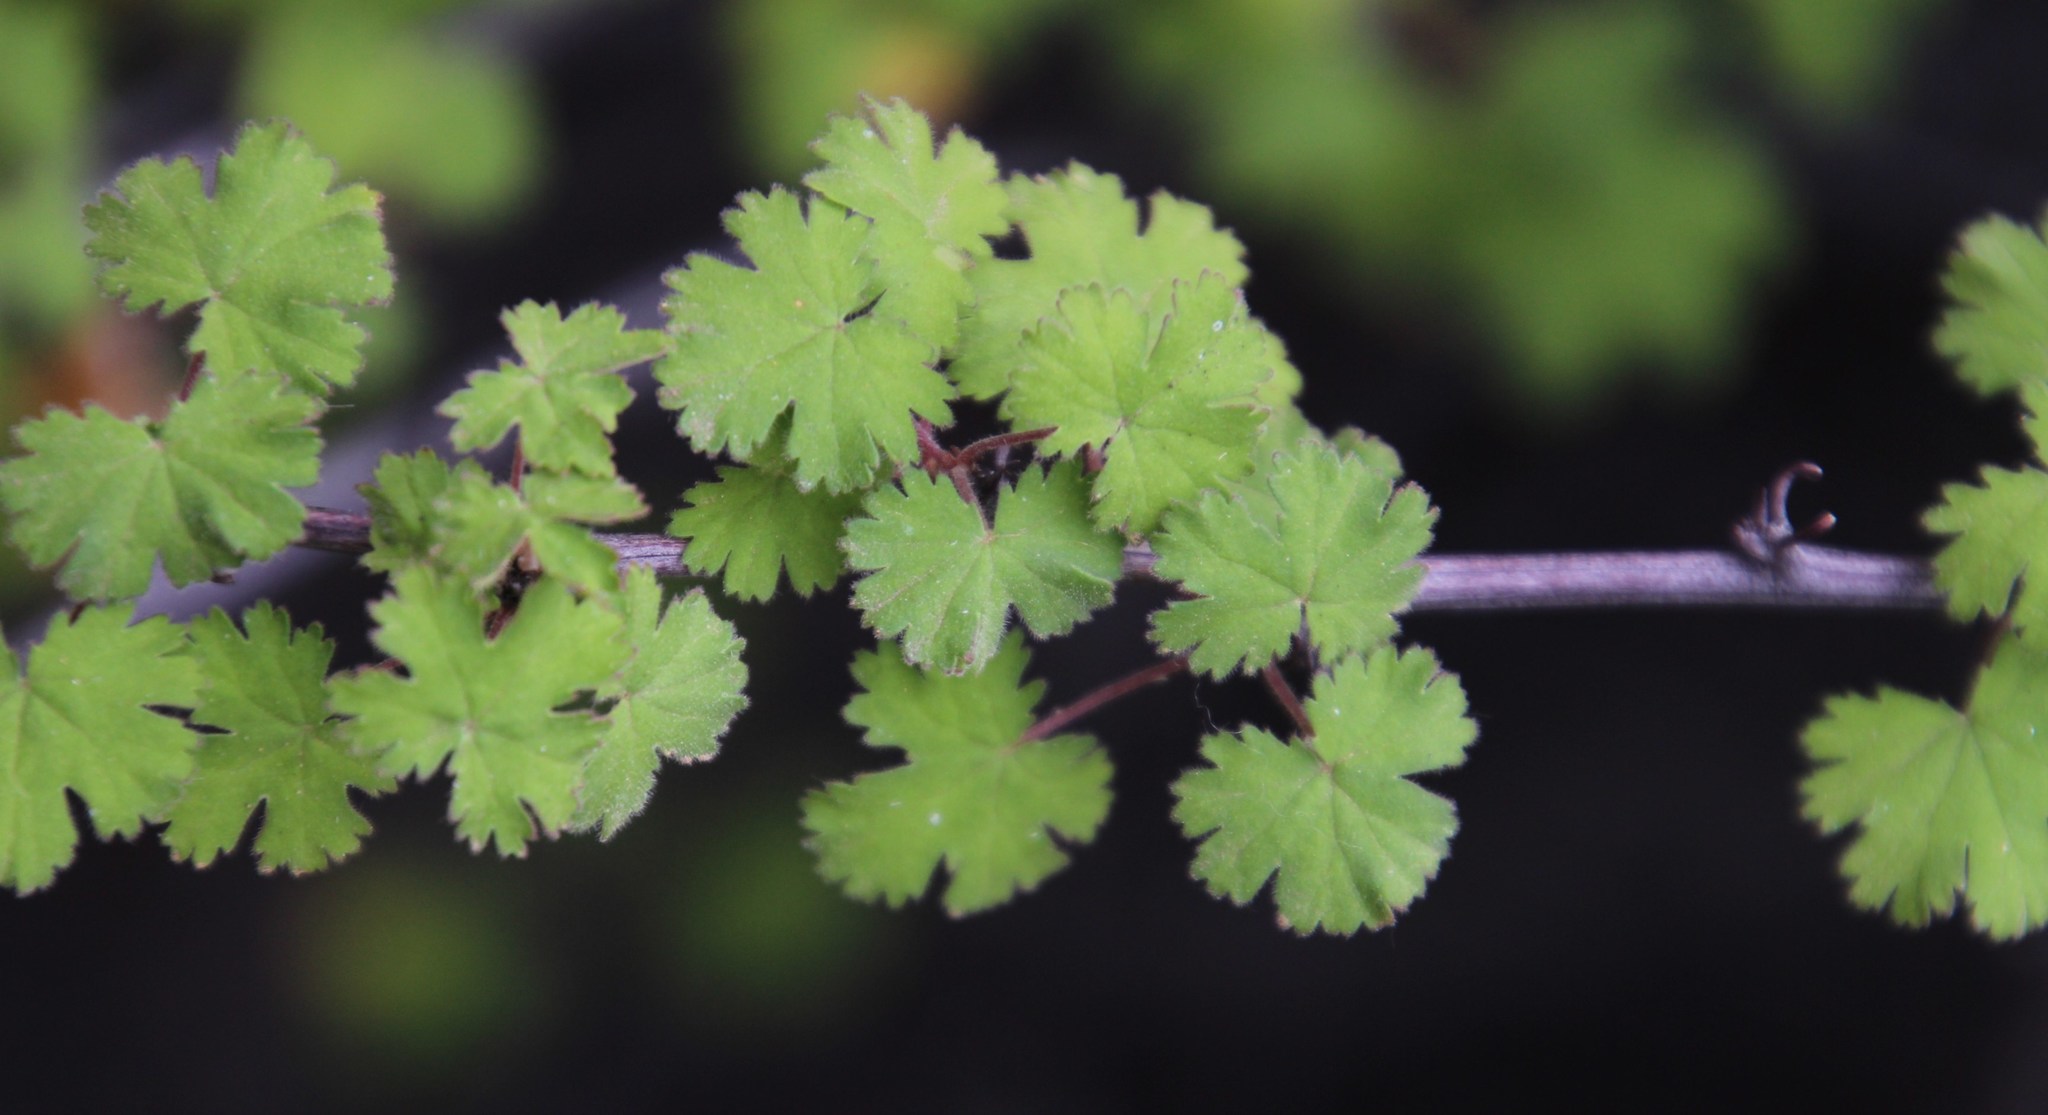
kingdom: Plantae
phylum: Tracheophyta
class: Magnoliopsida
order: Geraniales
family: Geraniaceae
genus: Pelargonium
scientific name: Pelargonium antidysentericum
